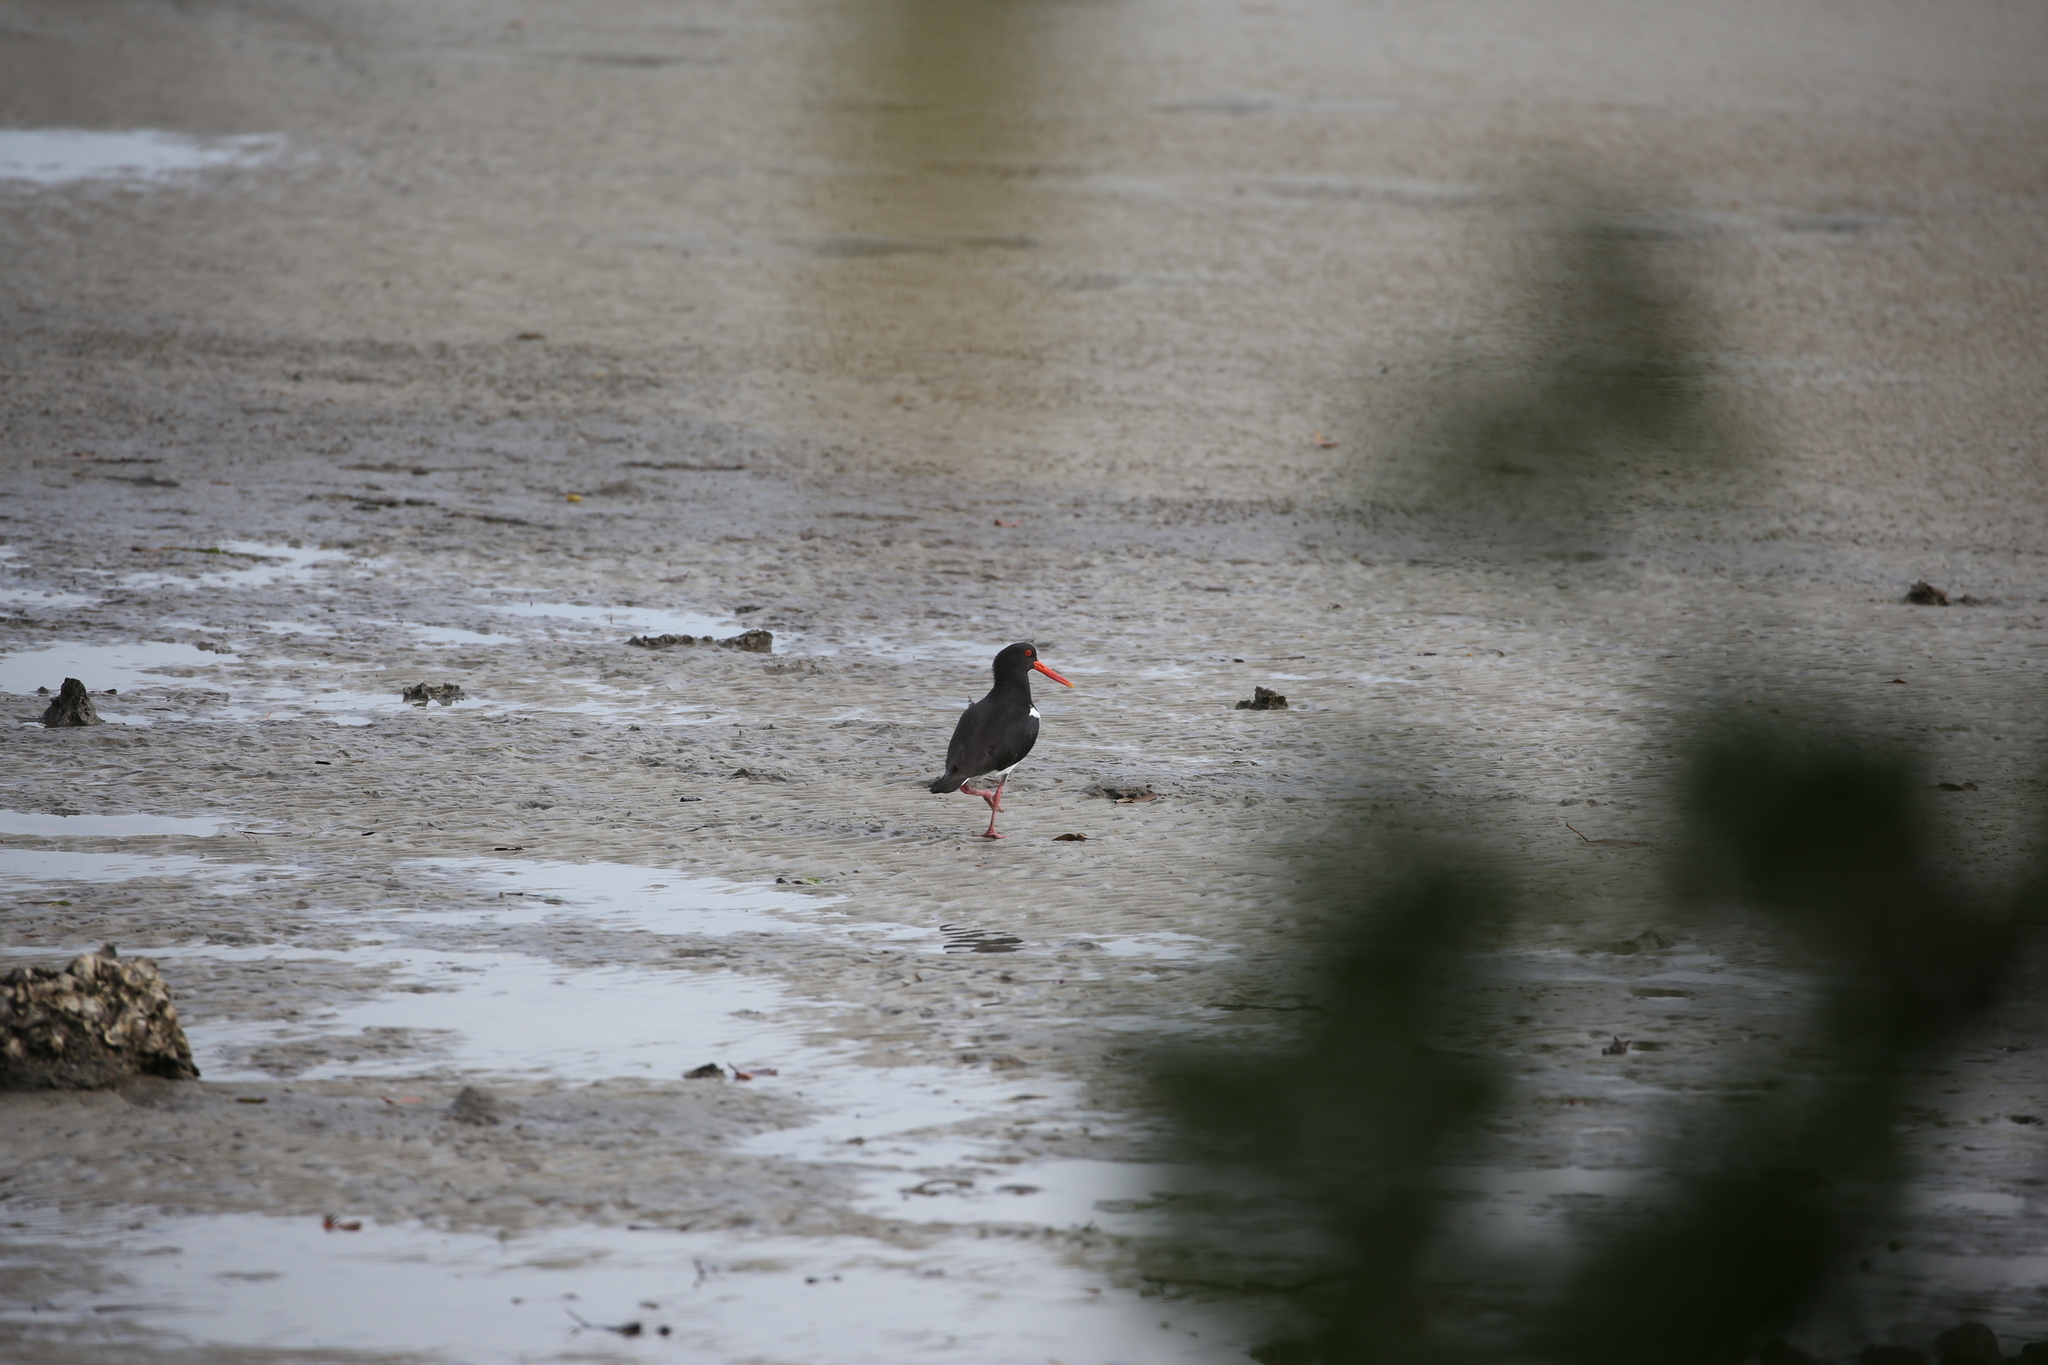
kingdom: Animalia
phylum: Chordata
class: Aves
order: Charadriiformes
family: Haematopodidae
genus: Haematopus
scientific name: Haematopus longirostris
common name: Pied oystercatcher
